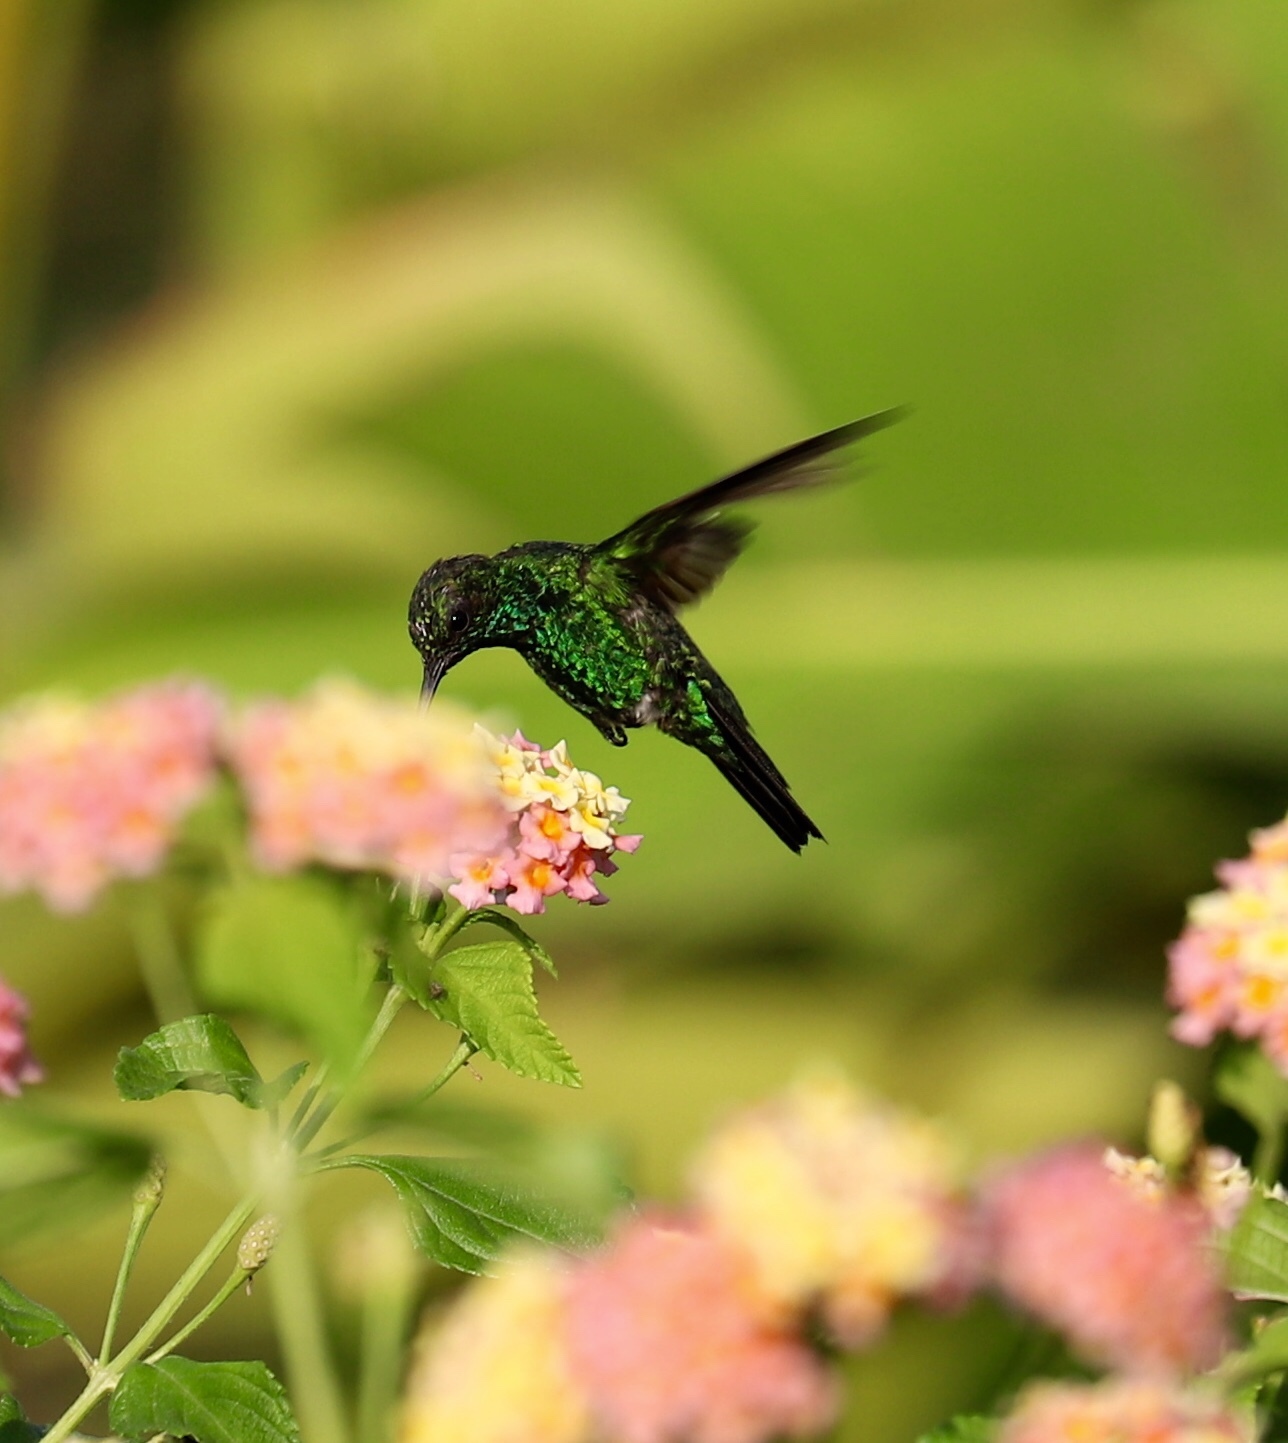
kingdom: Animalia
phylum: Chordata
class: Aves
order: Apodiformes
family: Trochilidae
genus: Chlorostilbon
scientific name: Chlorostilbon assimilis
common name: Garden emerald
